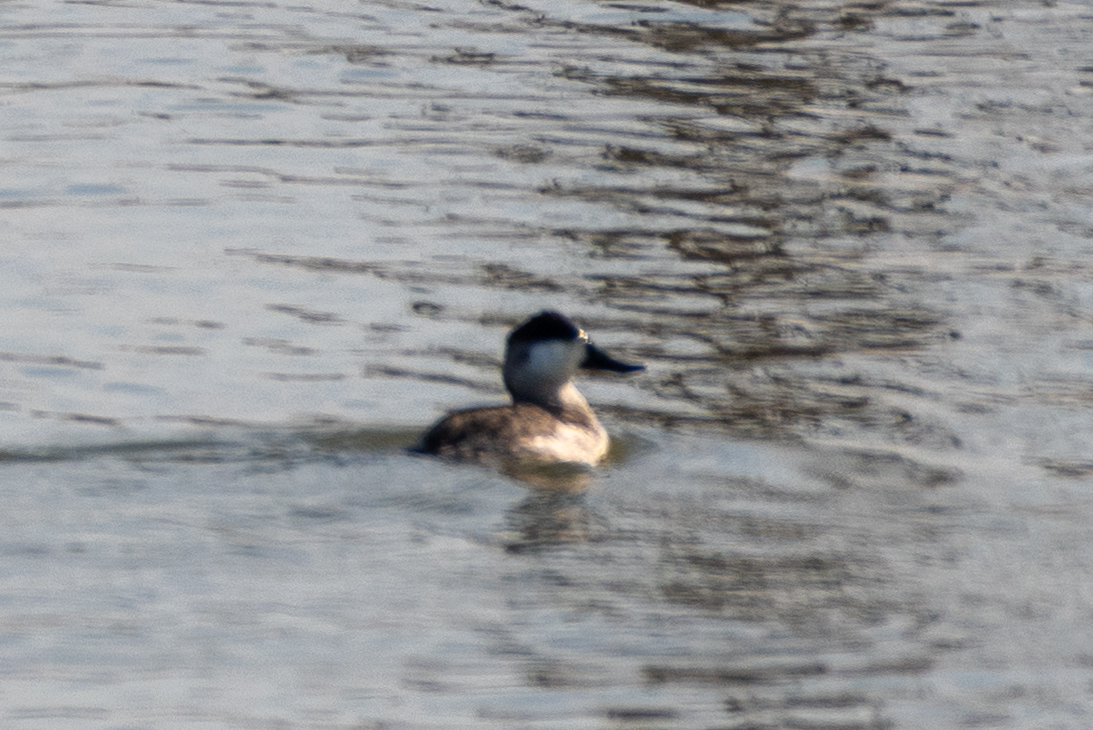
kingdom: Animalia
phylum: Chordata
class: Aves
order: Anseriformes
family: Anatidae
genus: Oxyura
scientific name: Oxyura jamaicensis
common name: Ruddy duck
